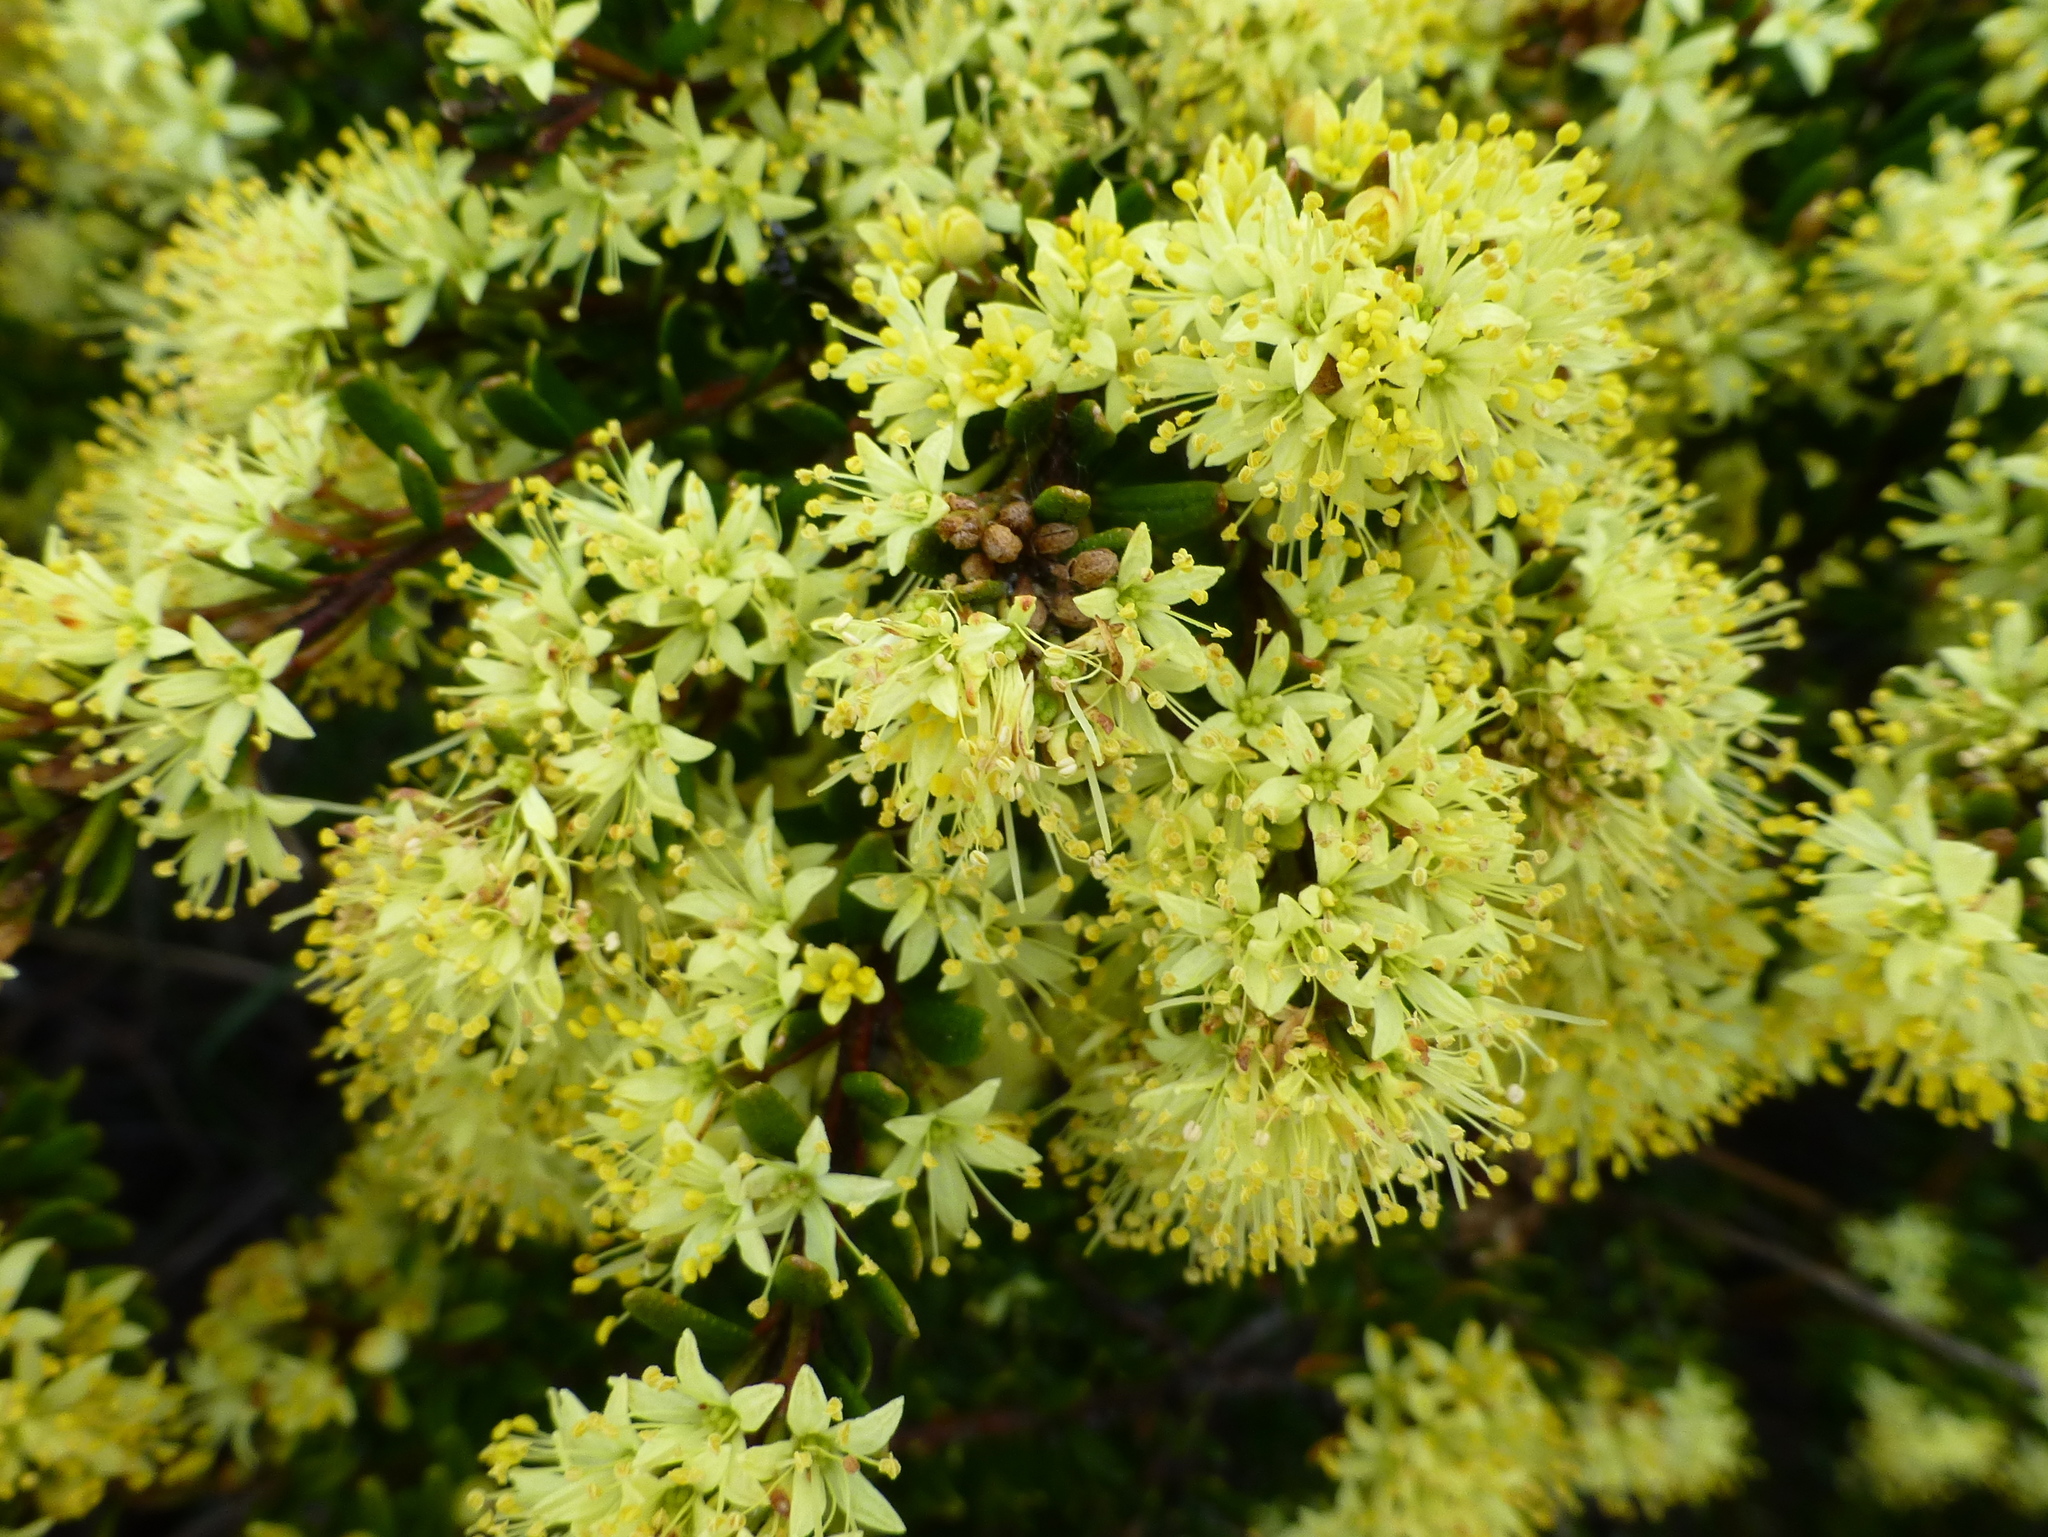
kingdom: Plantae
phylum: Tracheophyta
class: Magnoliopsida
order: Sapindales
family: Rutaceae
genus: Leionema
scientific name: Leionema phylicifolium
